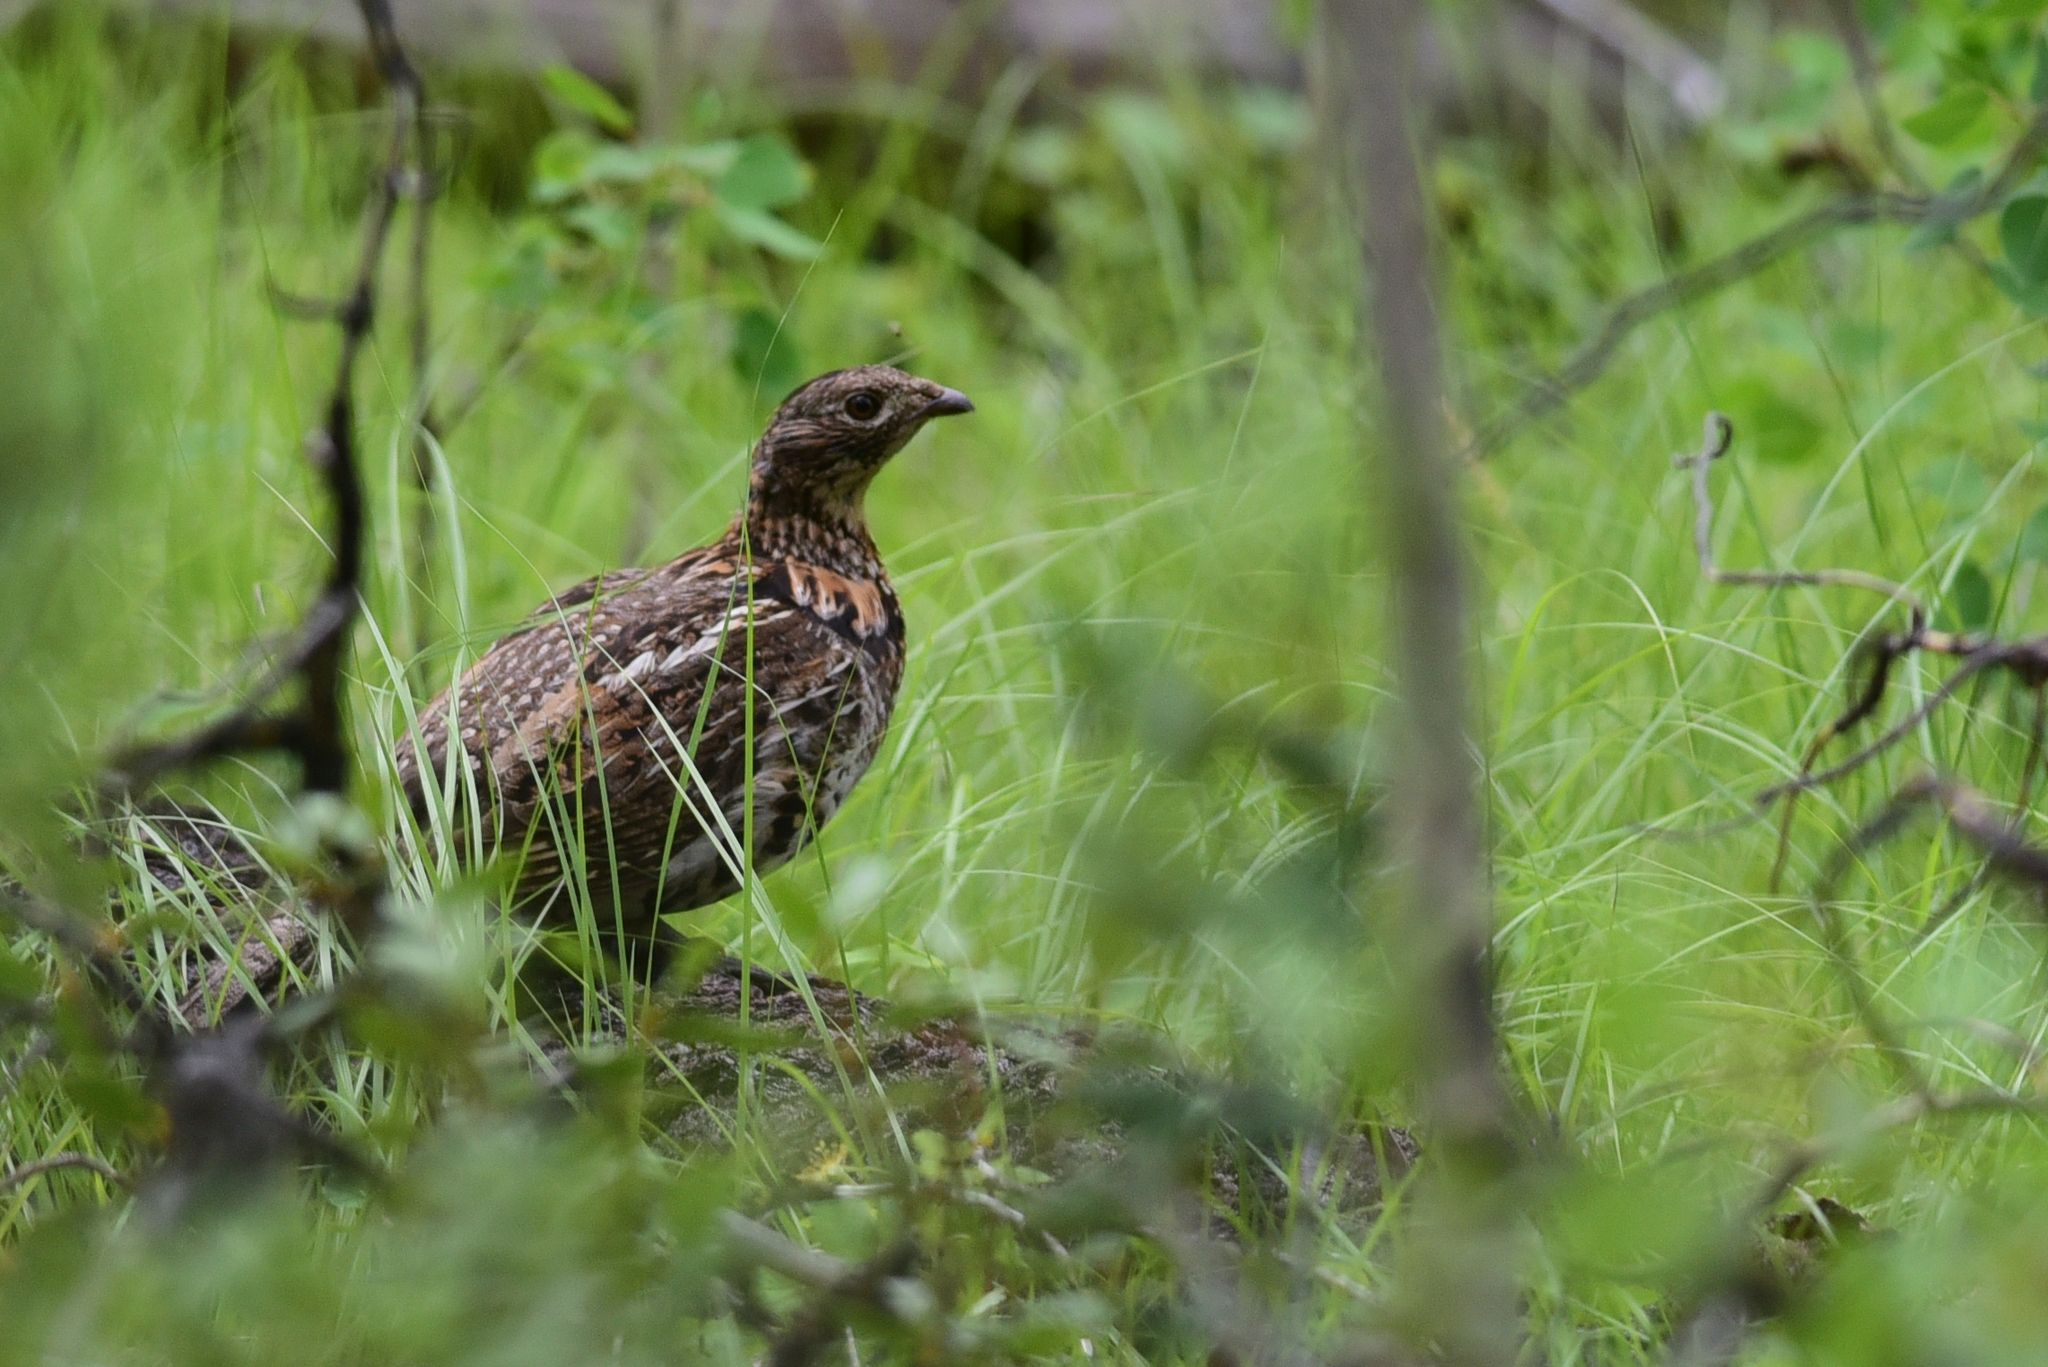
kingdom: Animalia
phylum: Chordata
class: Aves
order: Galliformes
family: Phasianidae
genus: Bonasa
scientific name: Bonasa umbellus
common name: Ruffed grouse
